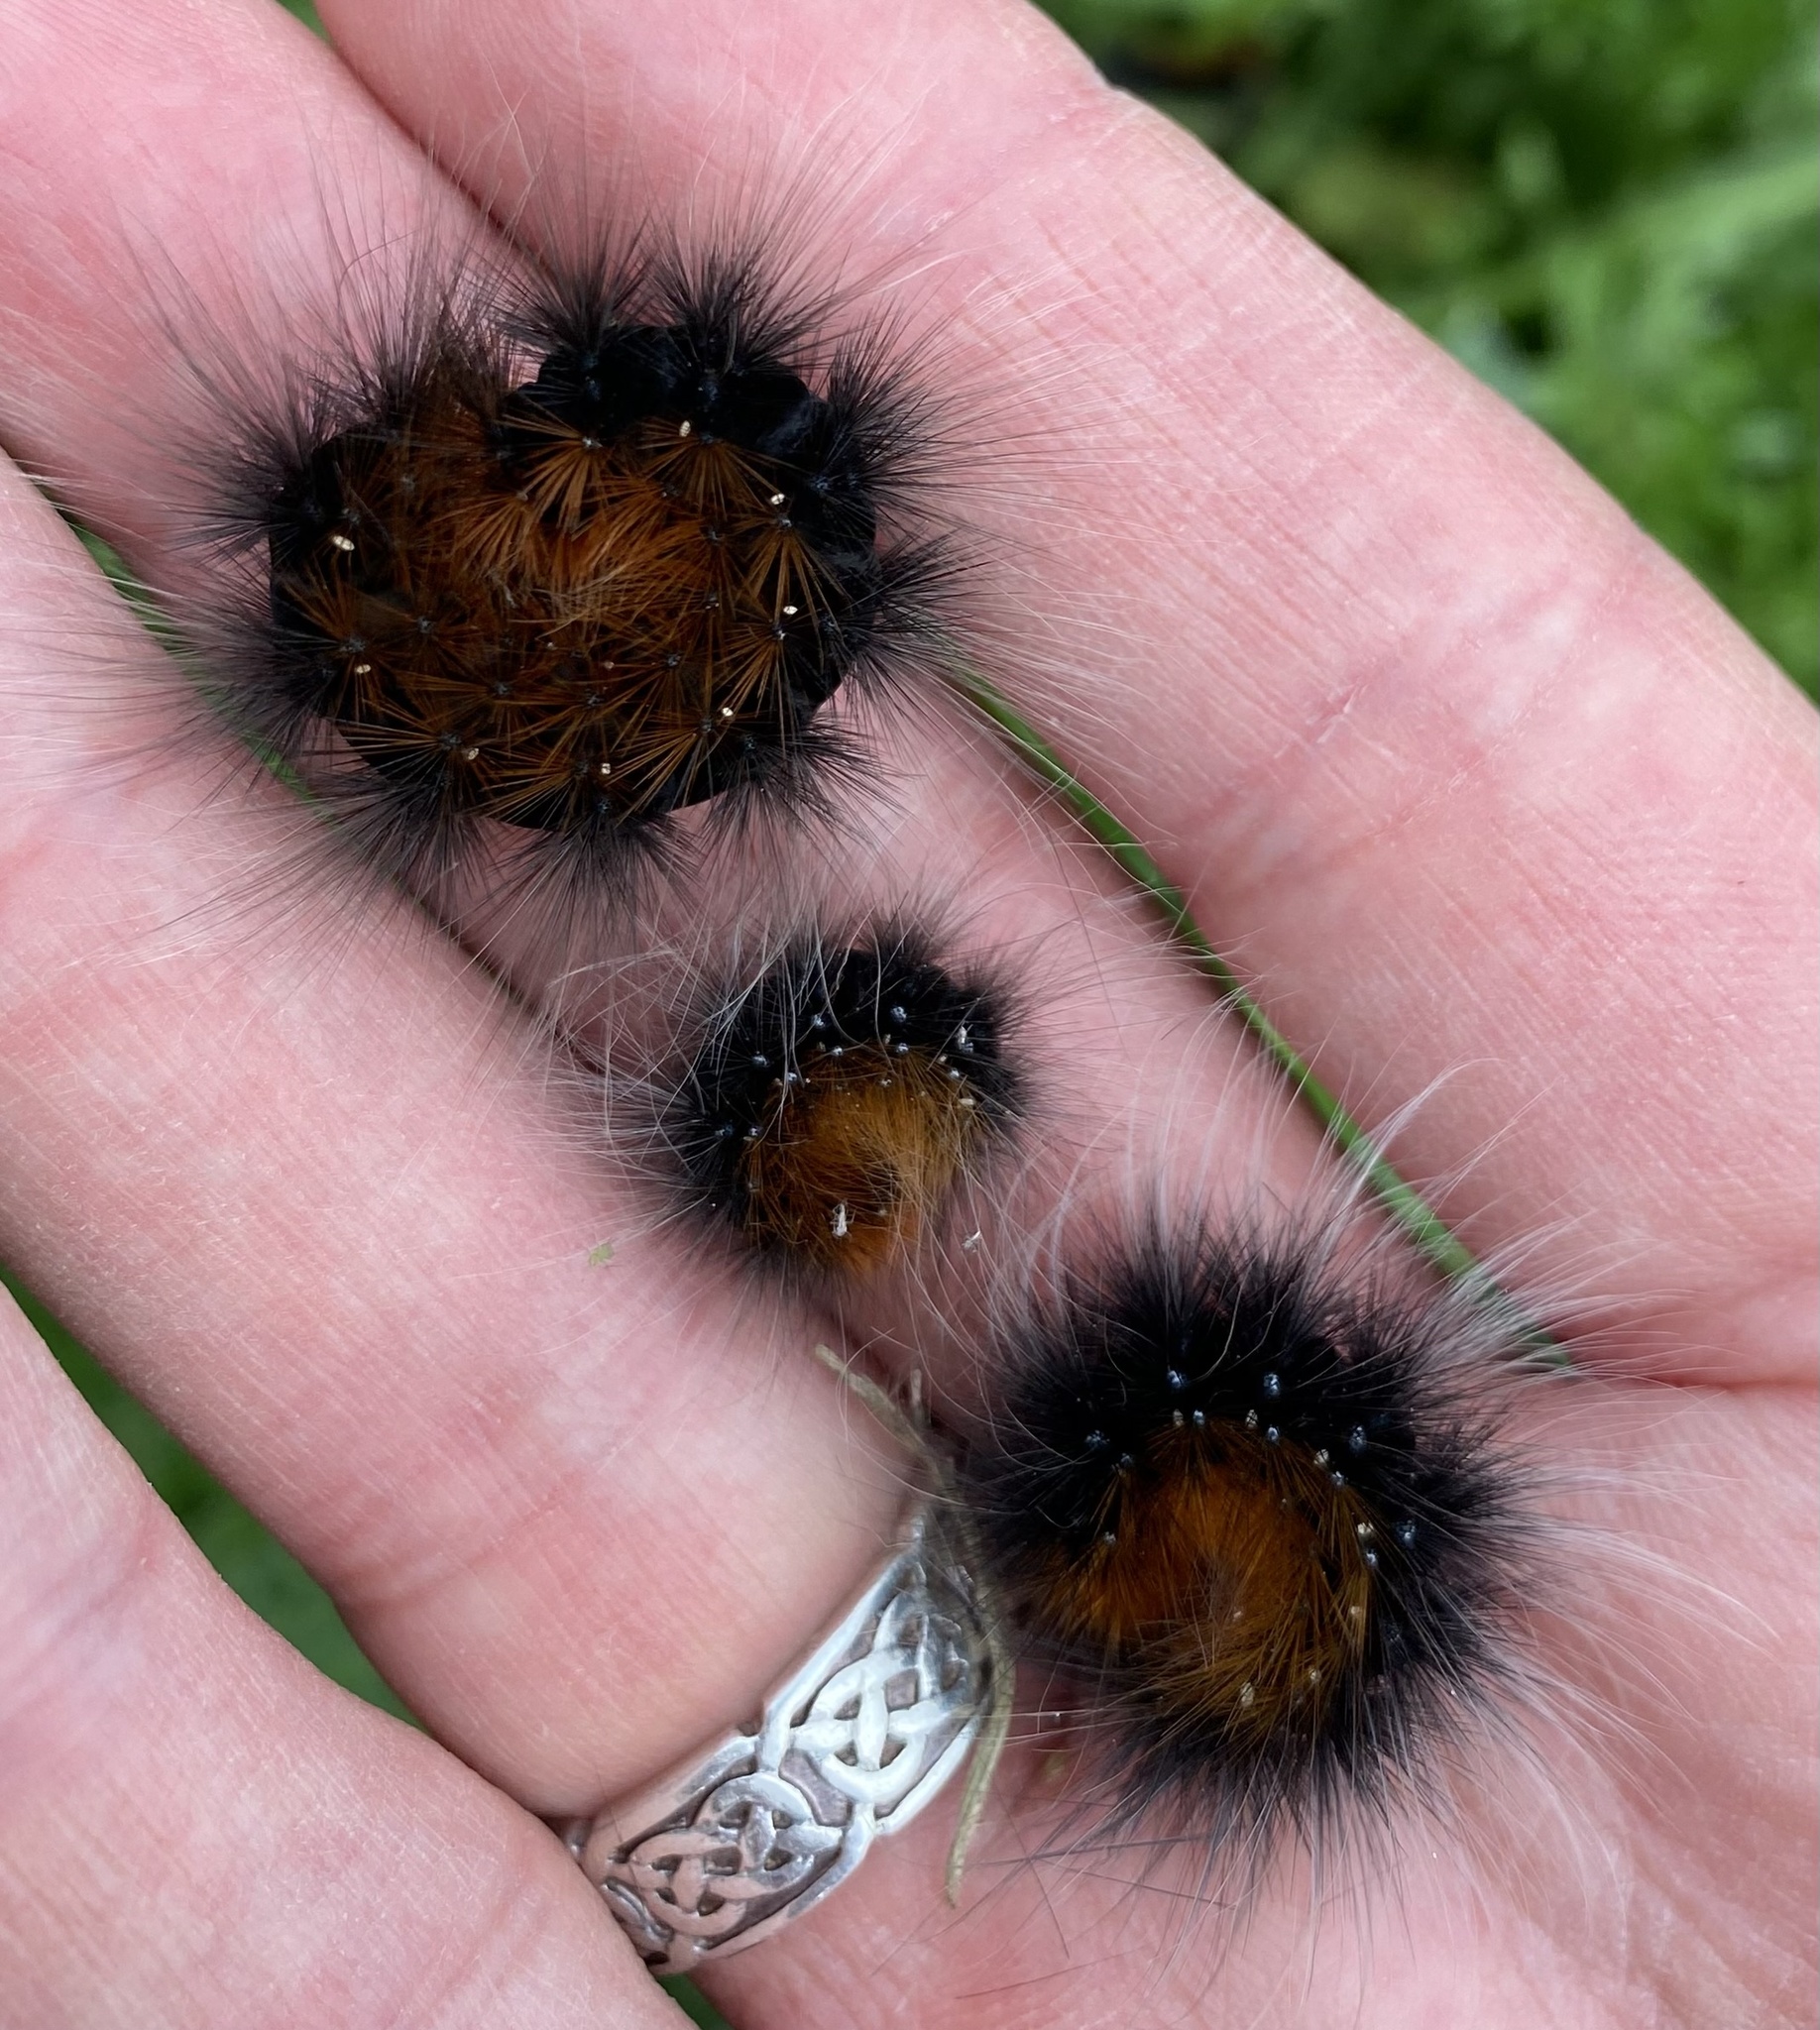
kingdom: Animalia
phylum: Arthropoda
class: Insecta
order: Lepidoptera
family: Erebidae
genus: Arctia
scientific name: Arctia caja
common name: Garden tiger
